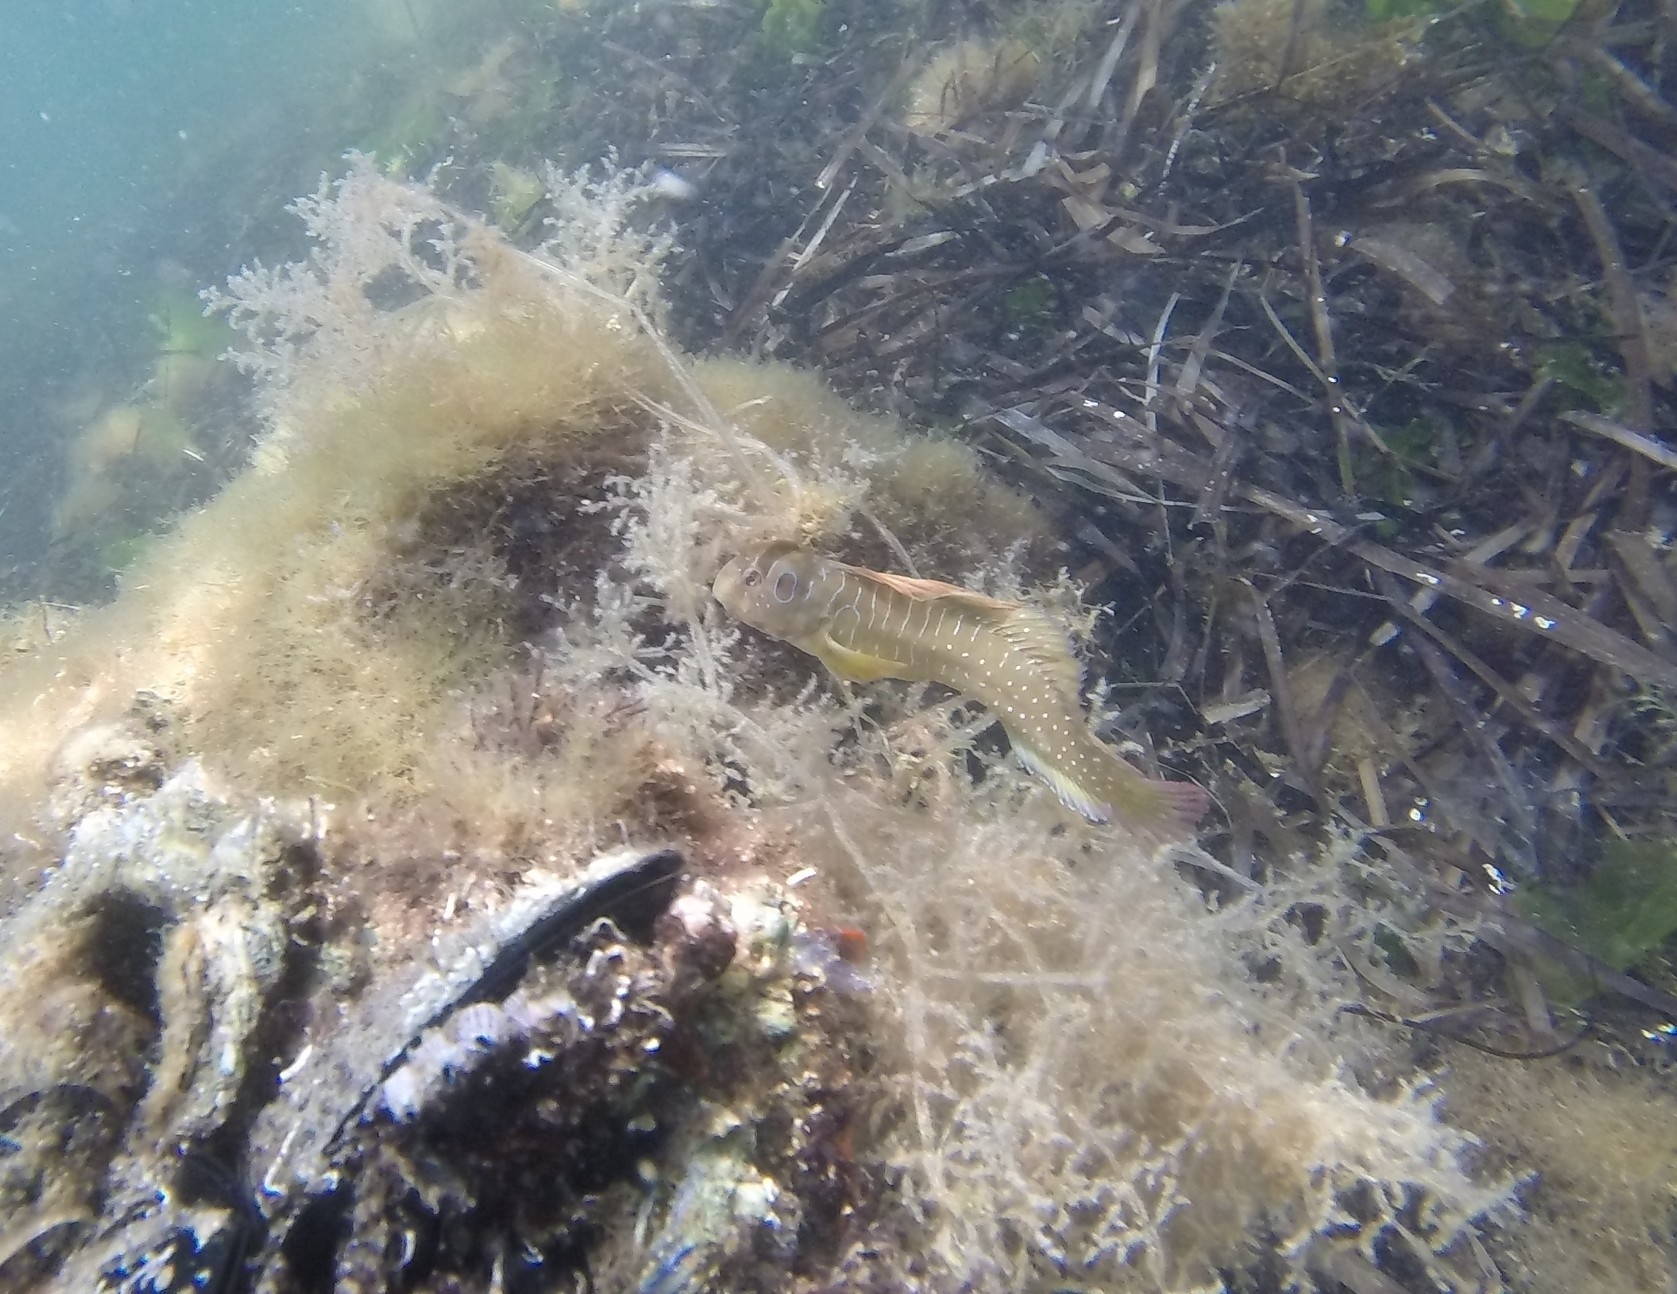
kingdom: Animalia
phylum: Chordata
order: Perciformes
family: Blenniidae
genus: Salaria
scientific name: Salaria pavo
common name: Peacock blenny
